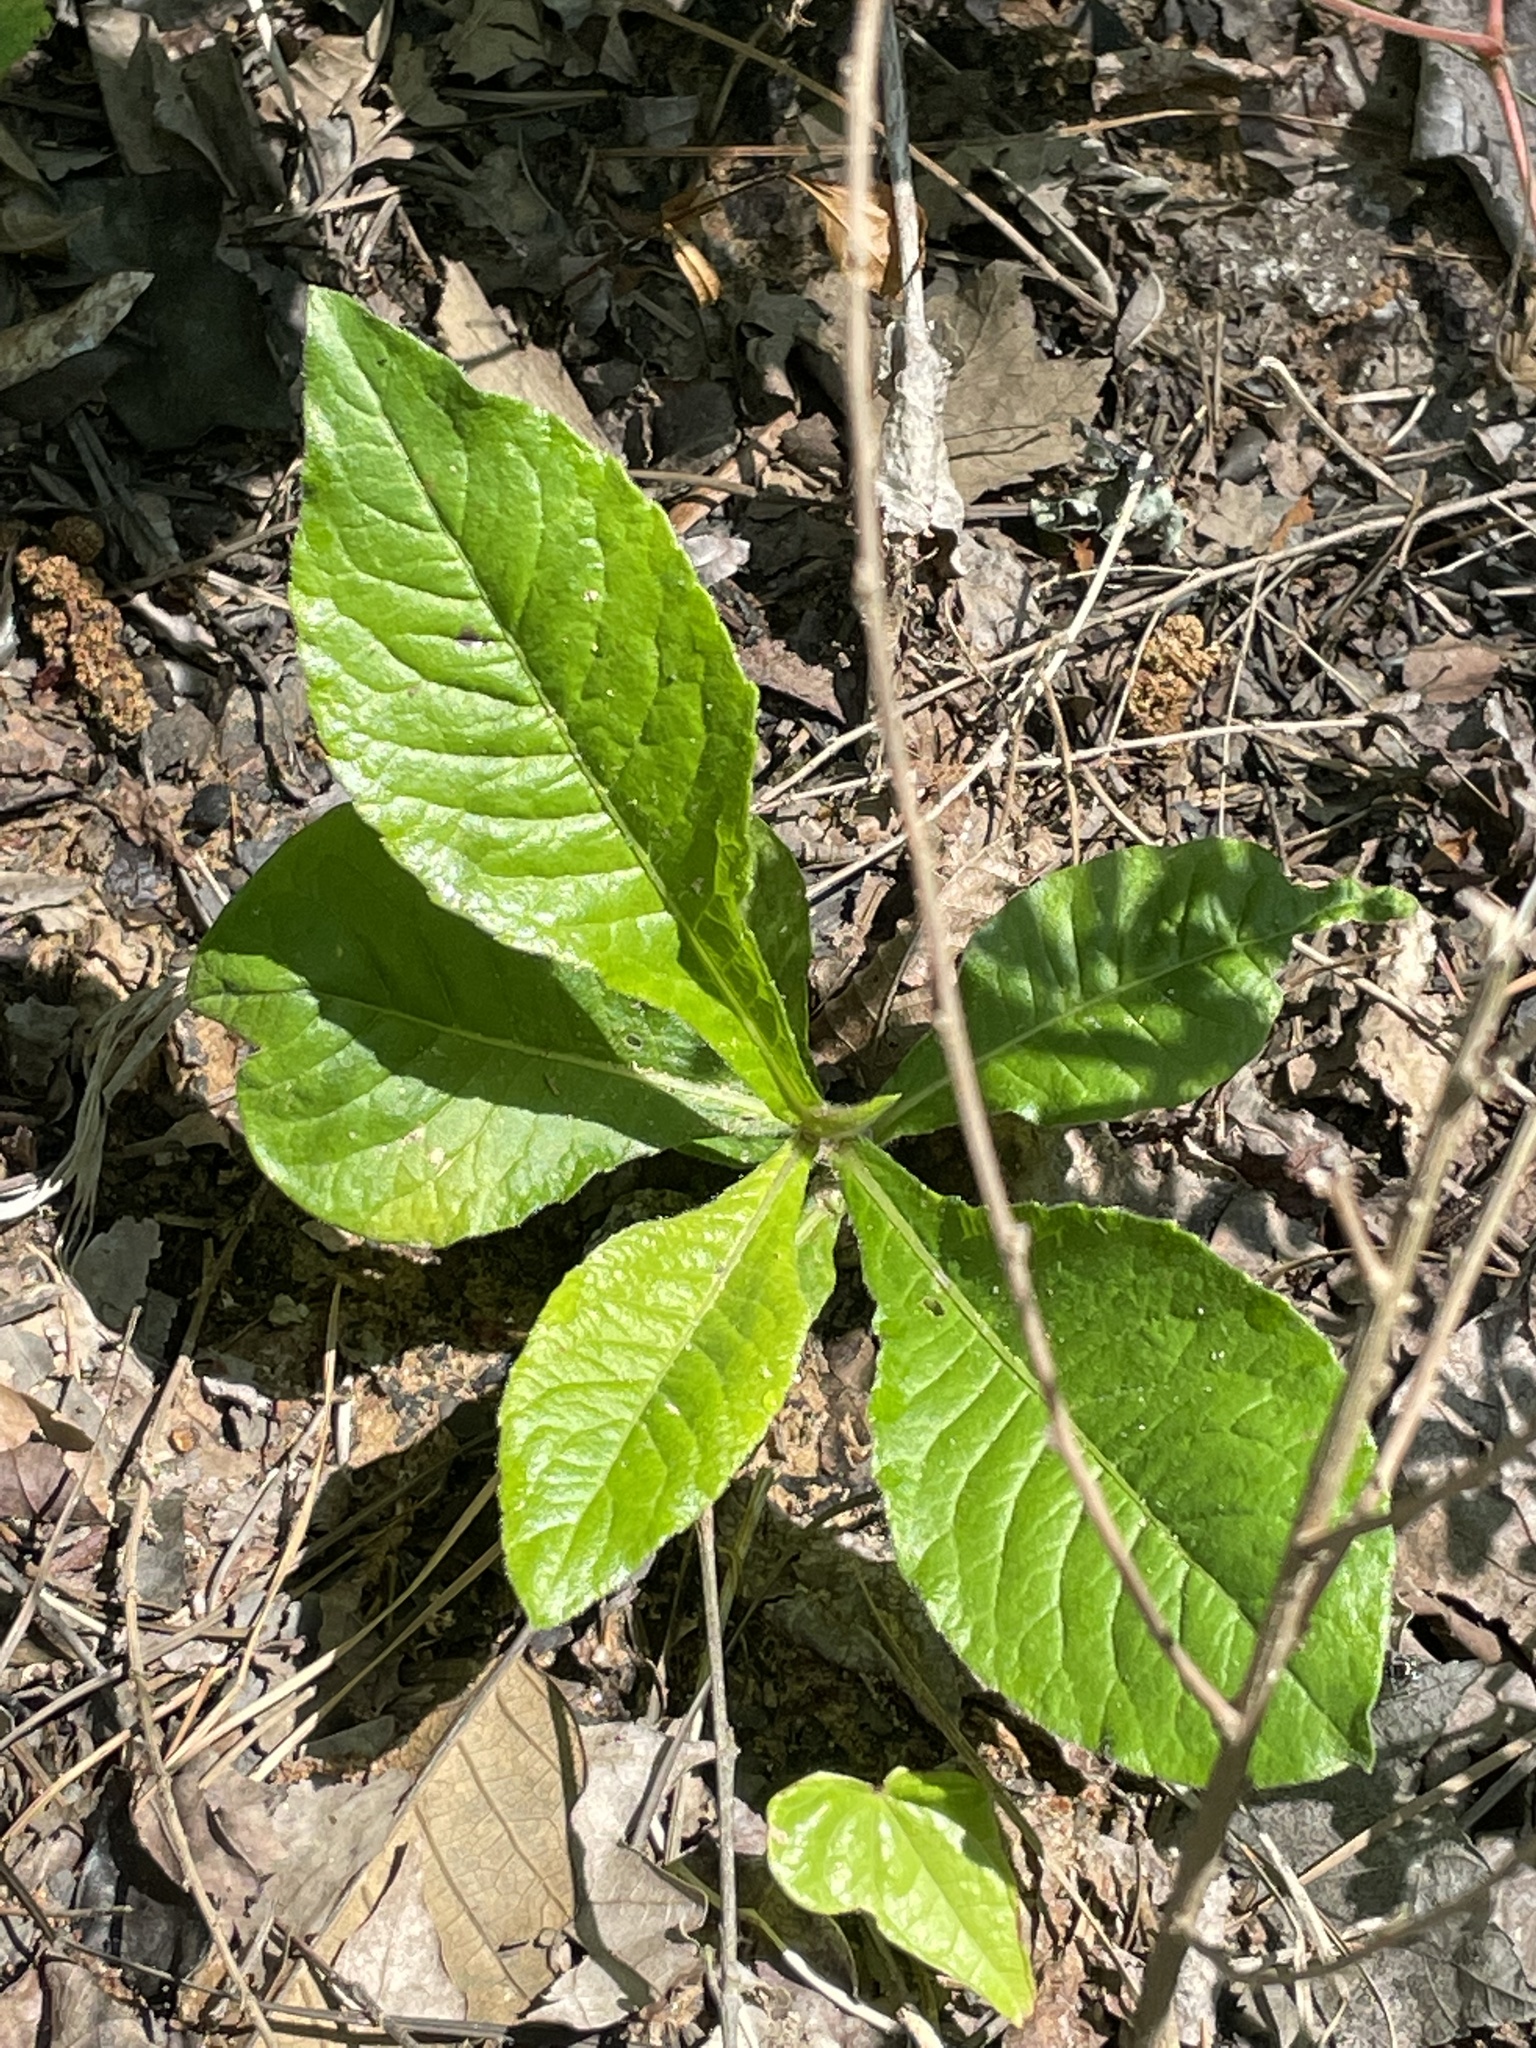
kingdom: Plantae
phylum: Tracheophyta
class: Magnoliopsida
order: Asterales
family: Asteraceae
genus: Elephantopus
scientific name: Elephantopus carolinianus
